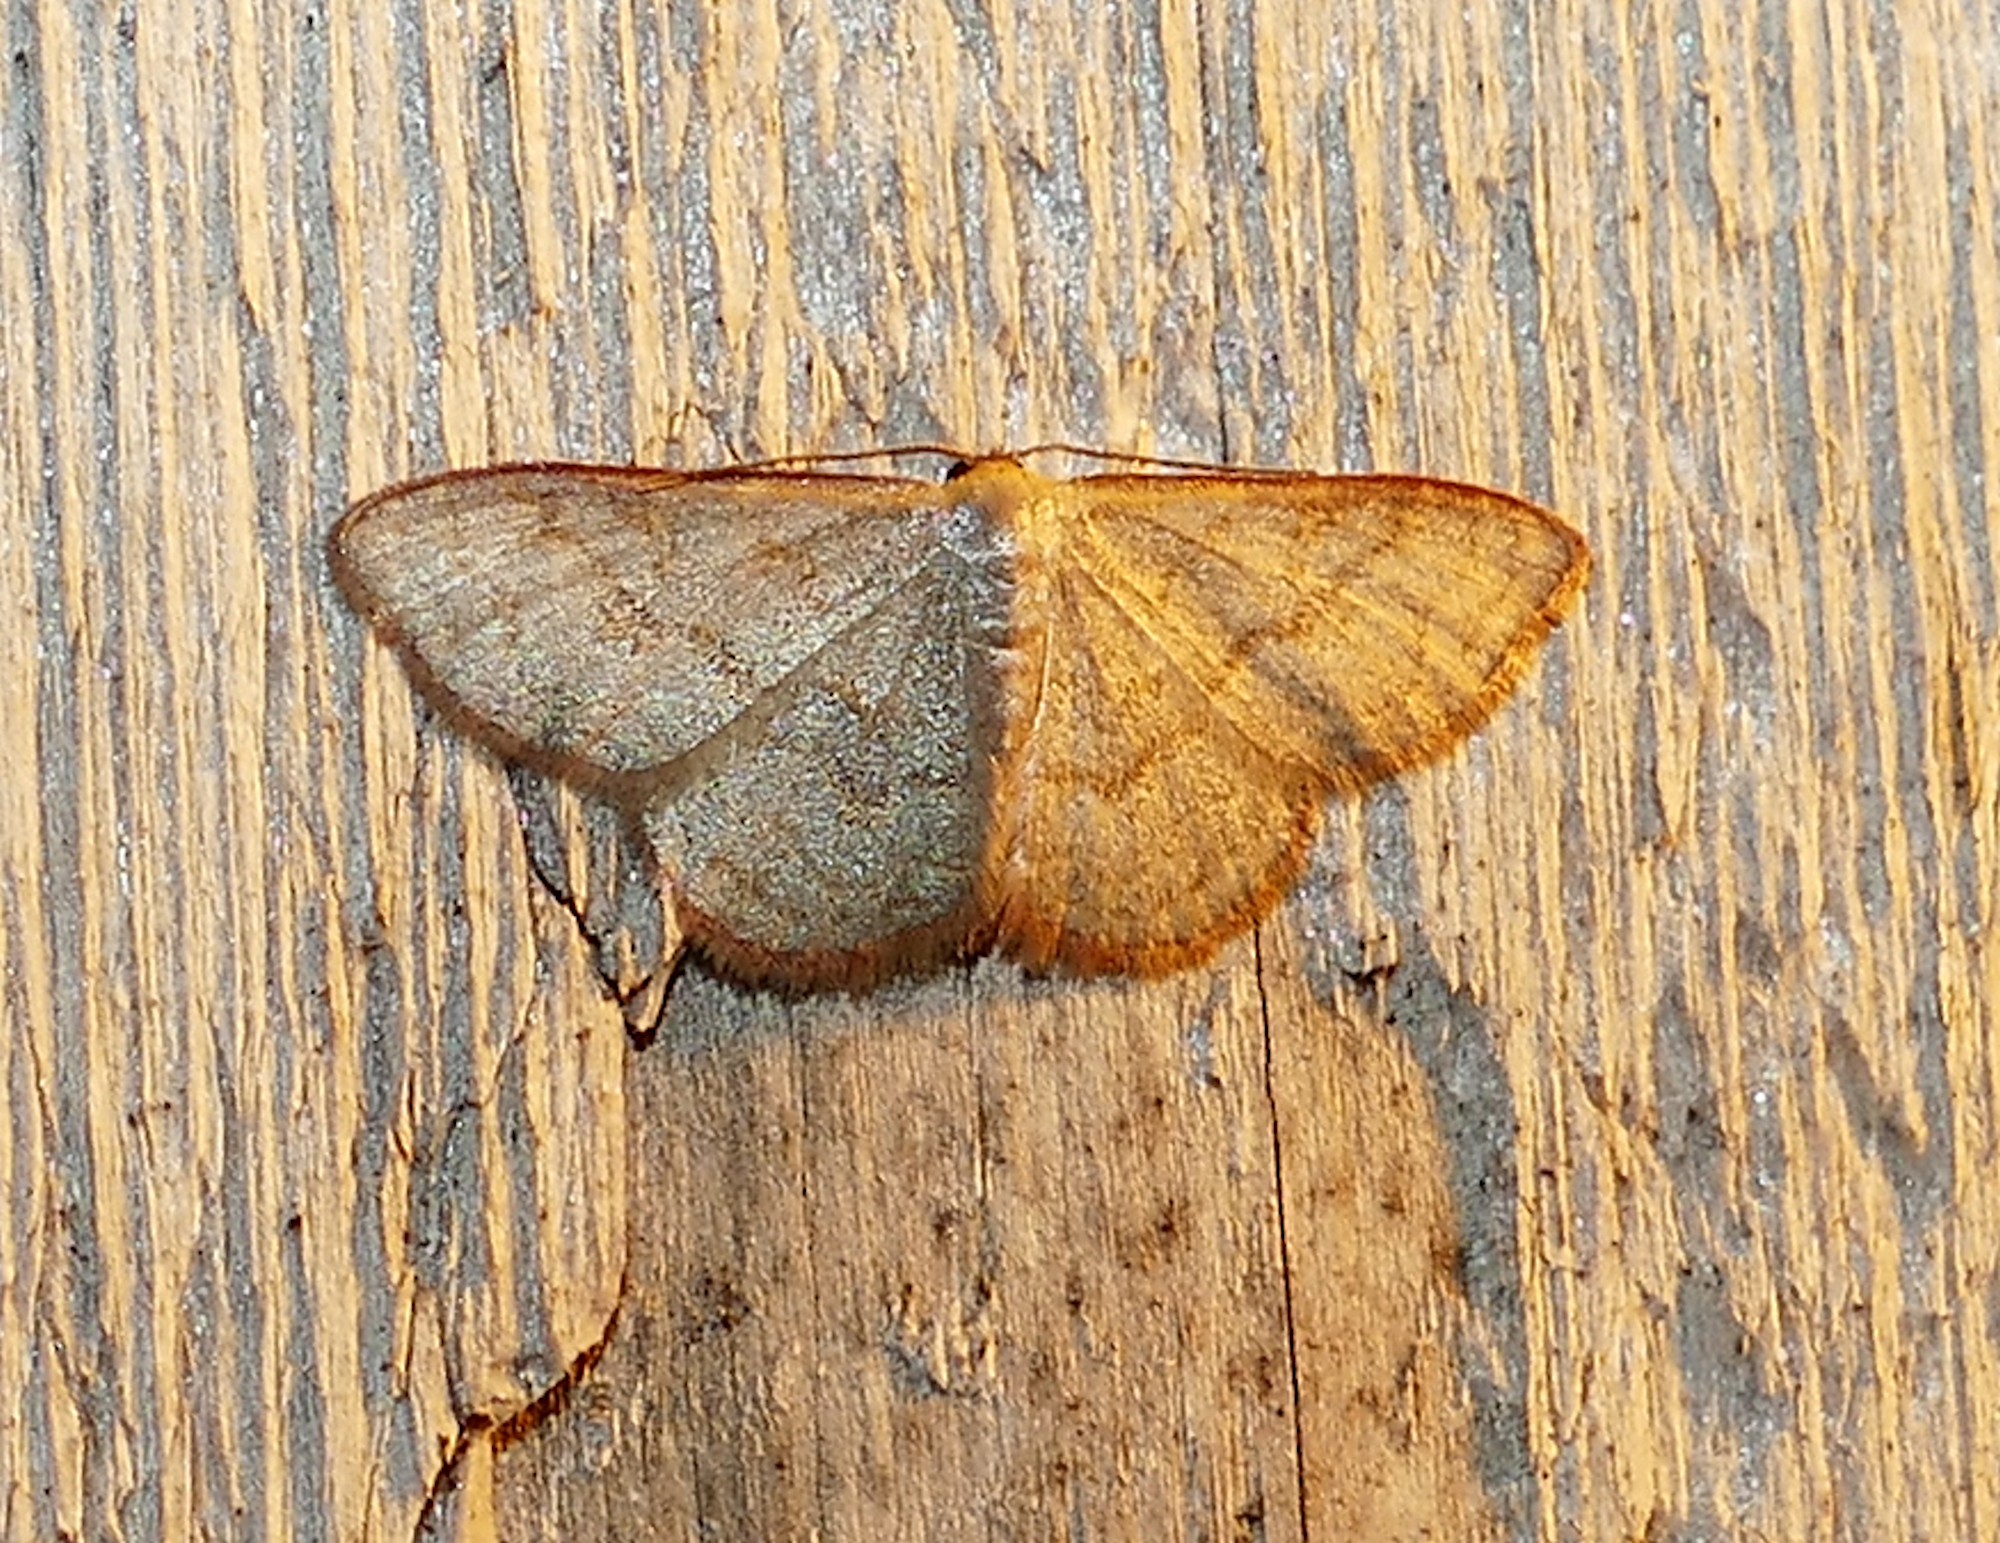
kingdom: Animalia
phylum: Arthropoda
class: Insecta
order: Lepidoptera
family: Geometridae
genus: Leptostales
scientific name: Leptostales pannaria
